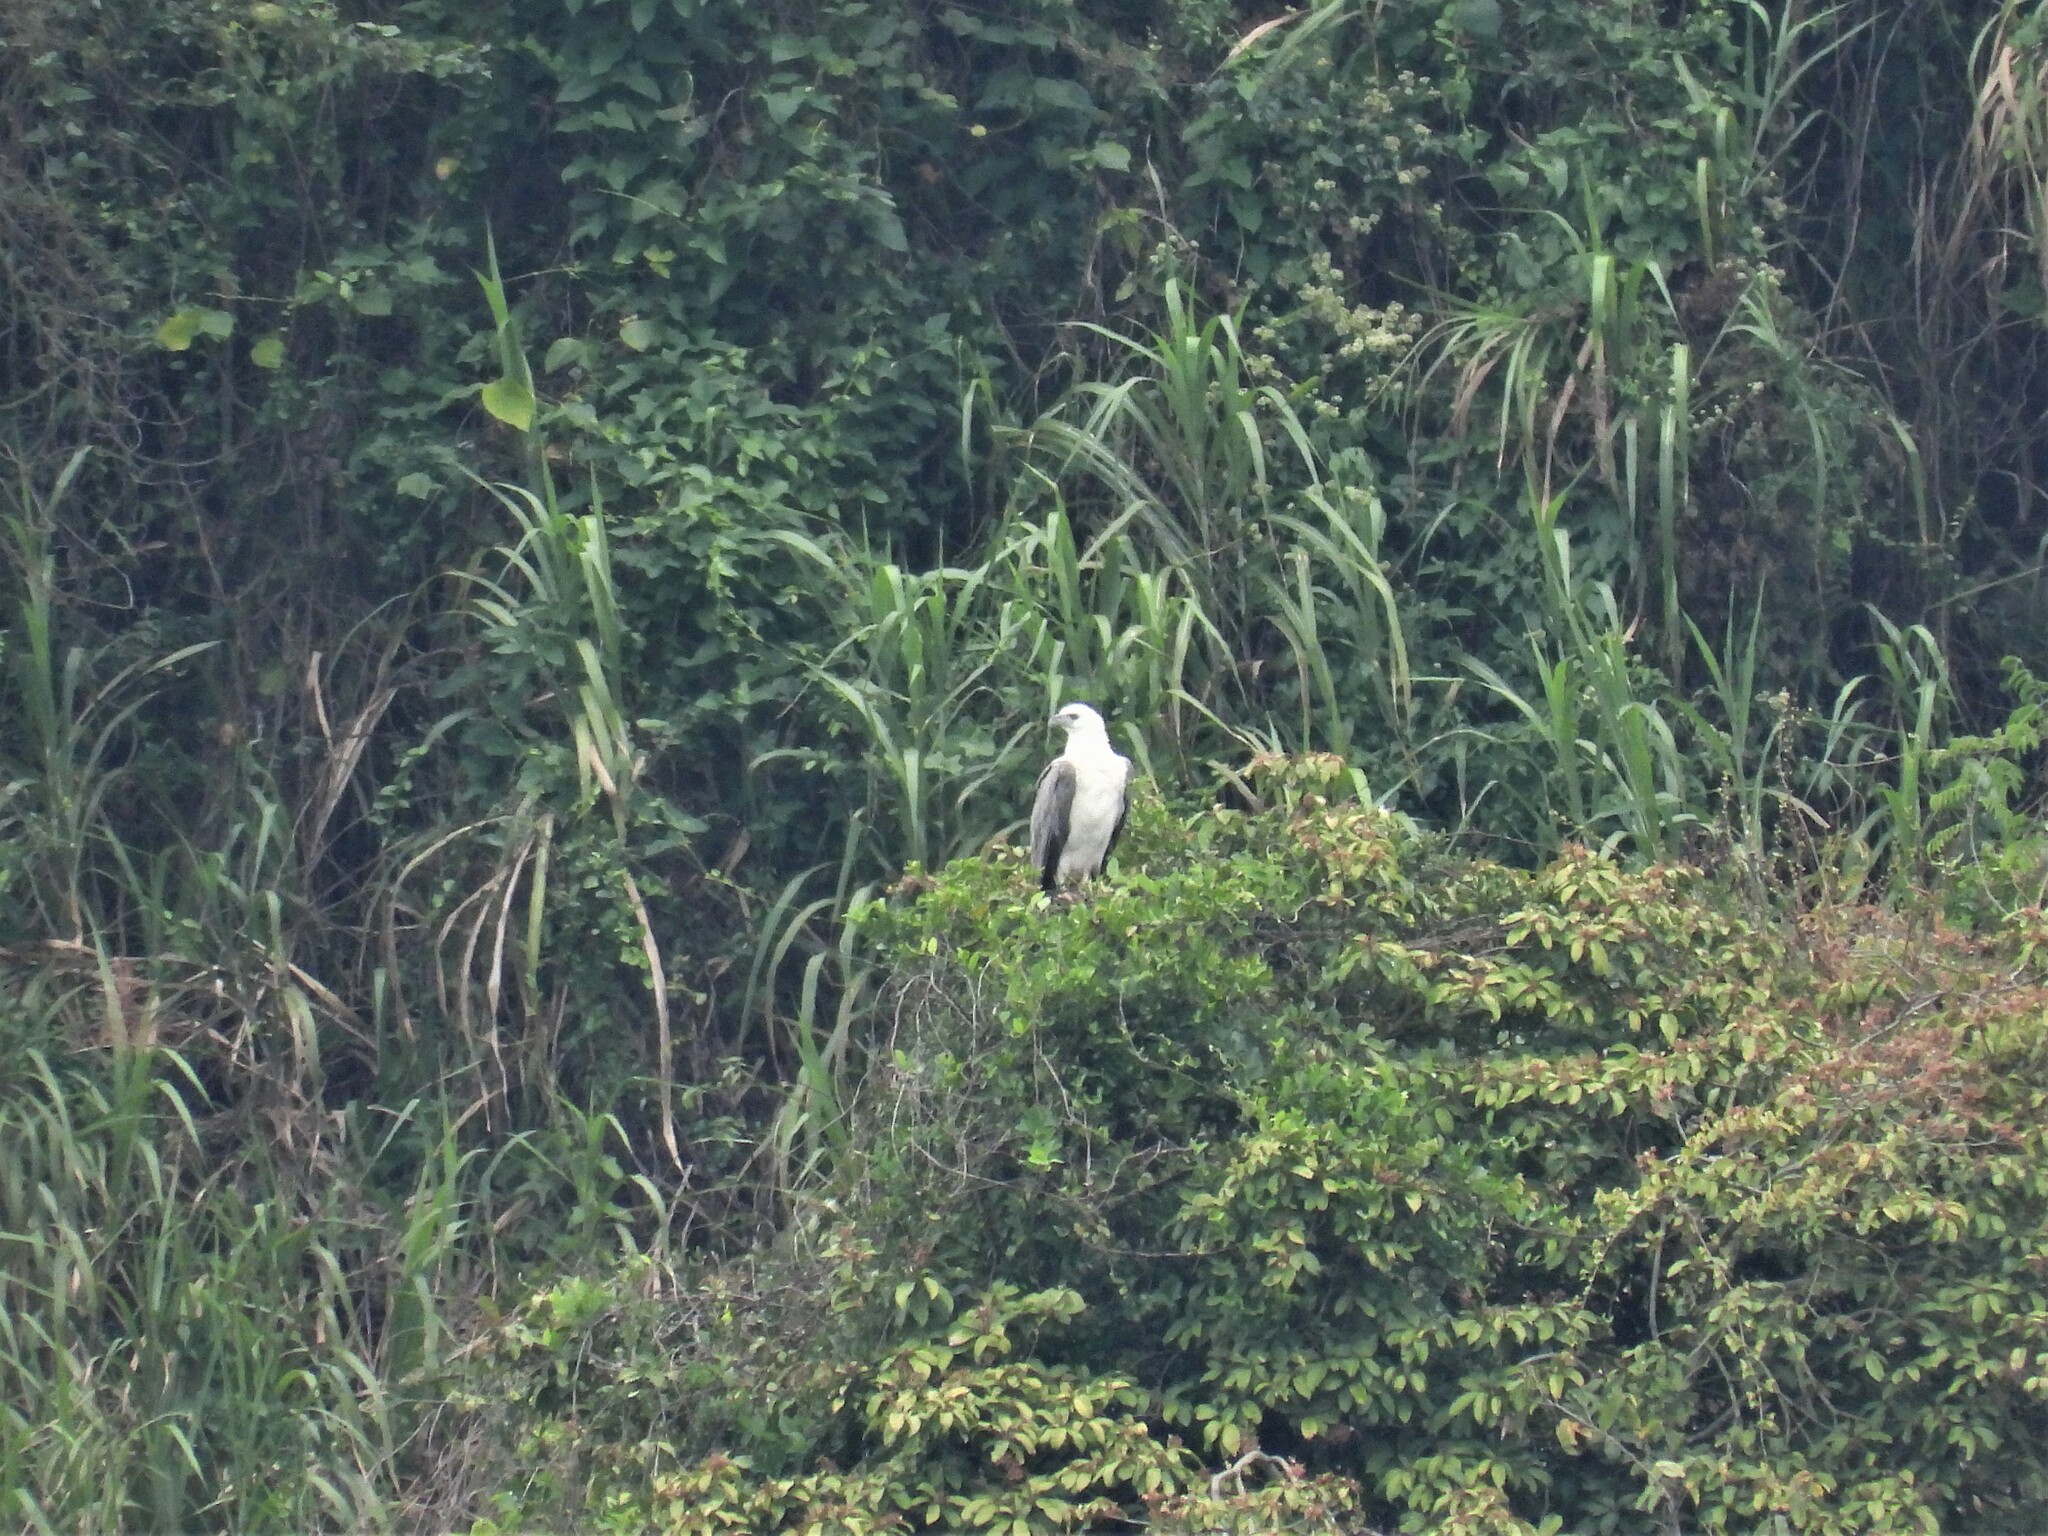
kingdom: Animalia
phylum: Chordata
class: Aves
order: Accipitriformes
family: Accipitridae
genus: Haliaeetus
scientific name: Haliaeetus leucogaster
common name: White-bellied sea eagle
